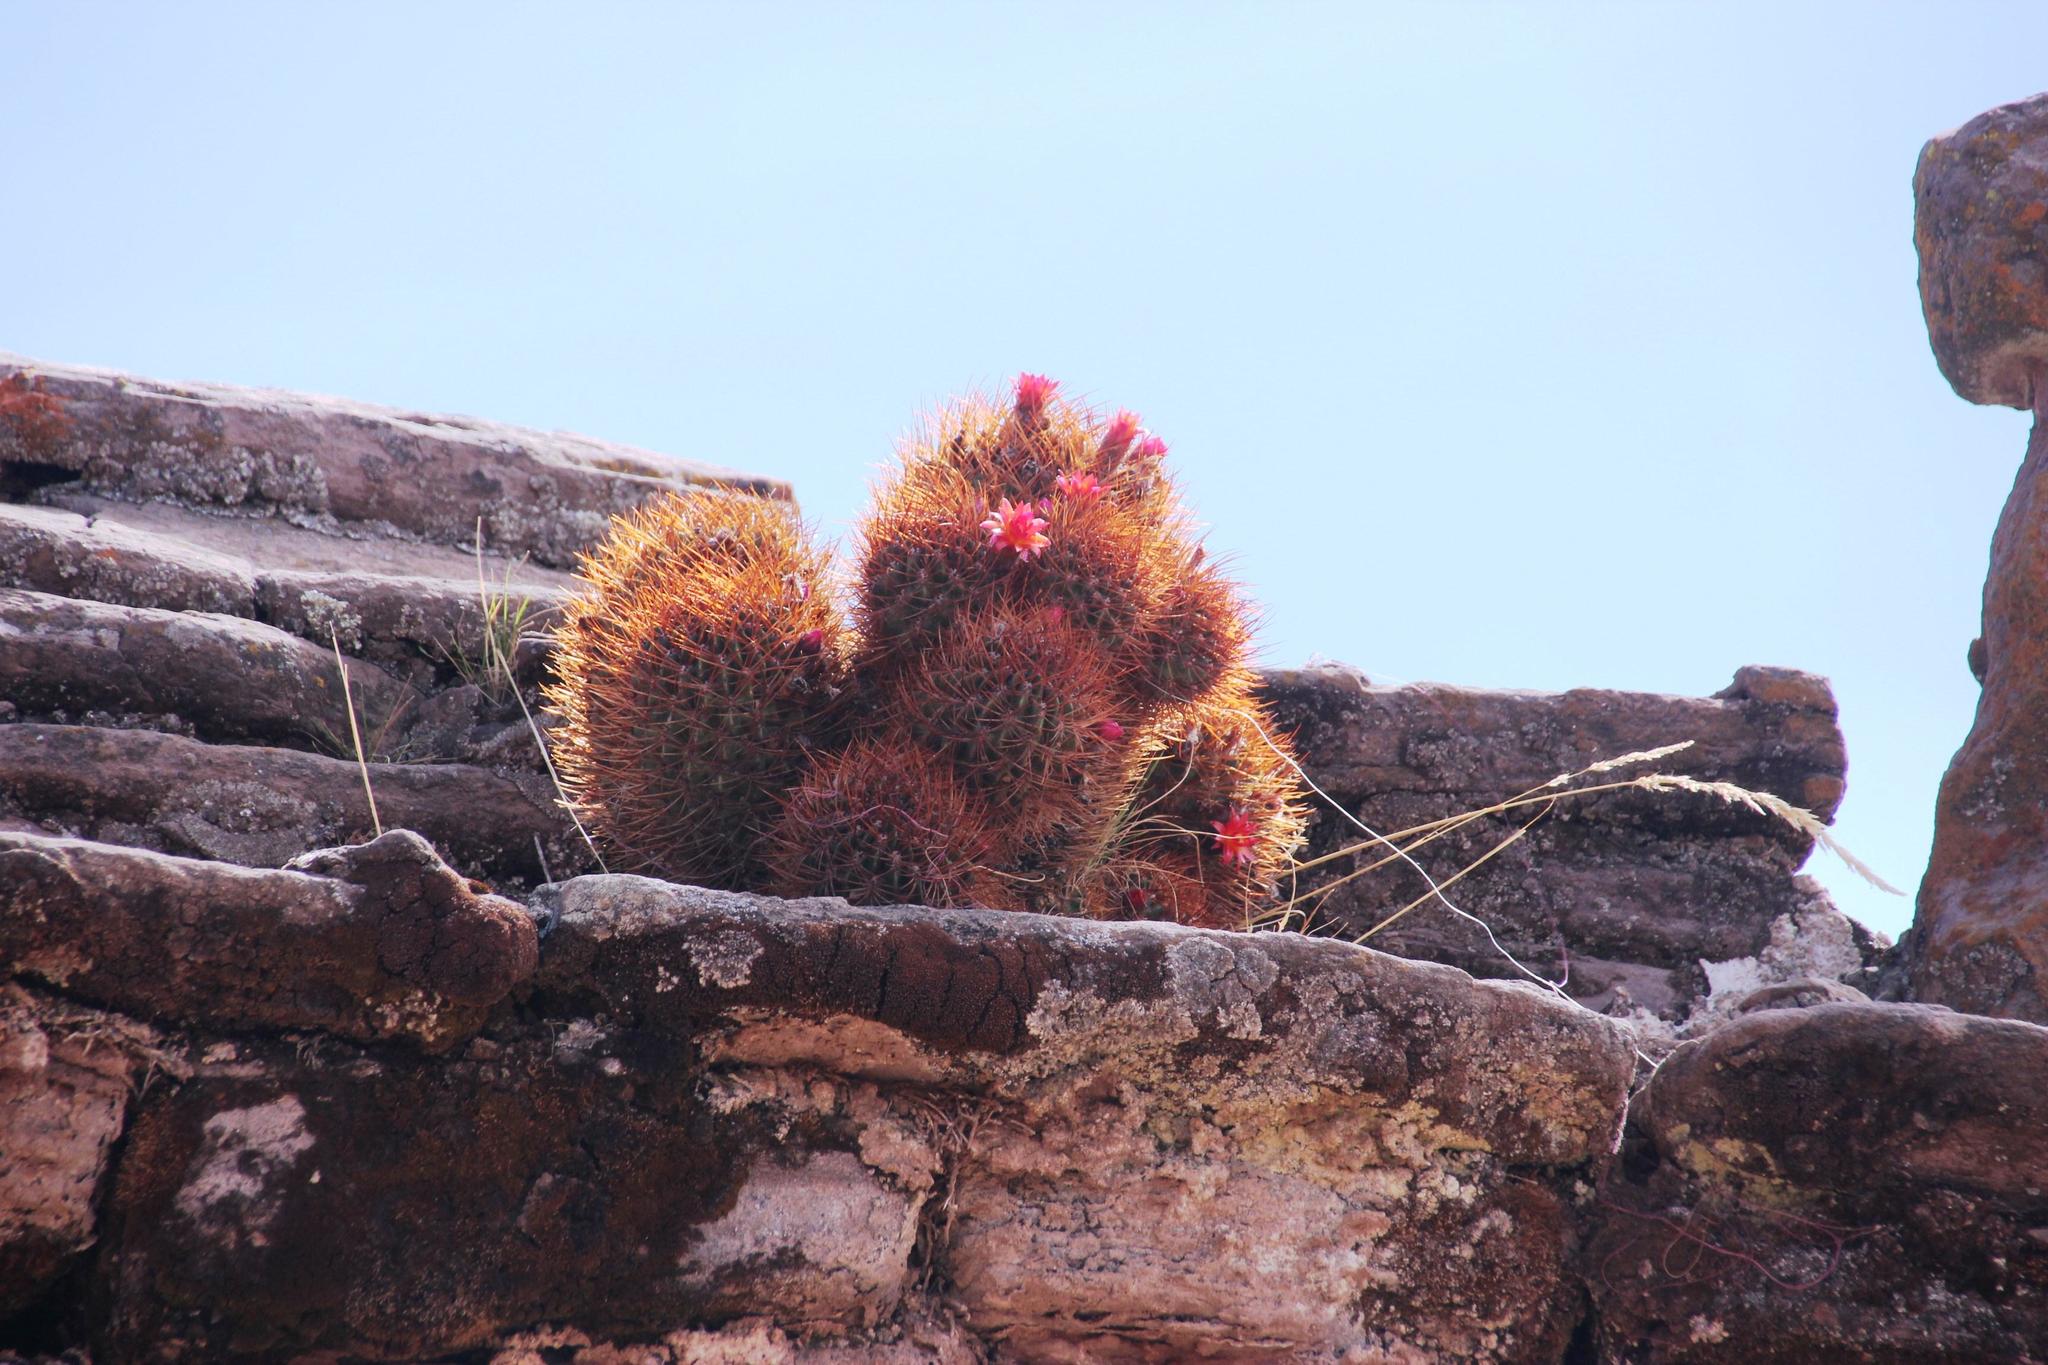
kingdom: Plantae
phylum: Tracheophyta
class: Magnoliopsida
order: Caryophyllales
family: Cactaceae
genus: Lobivia
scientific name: Lobivia maximiliana
